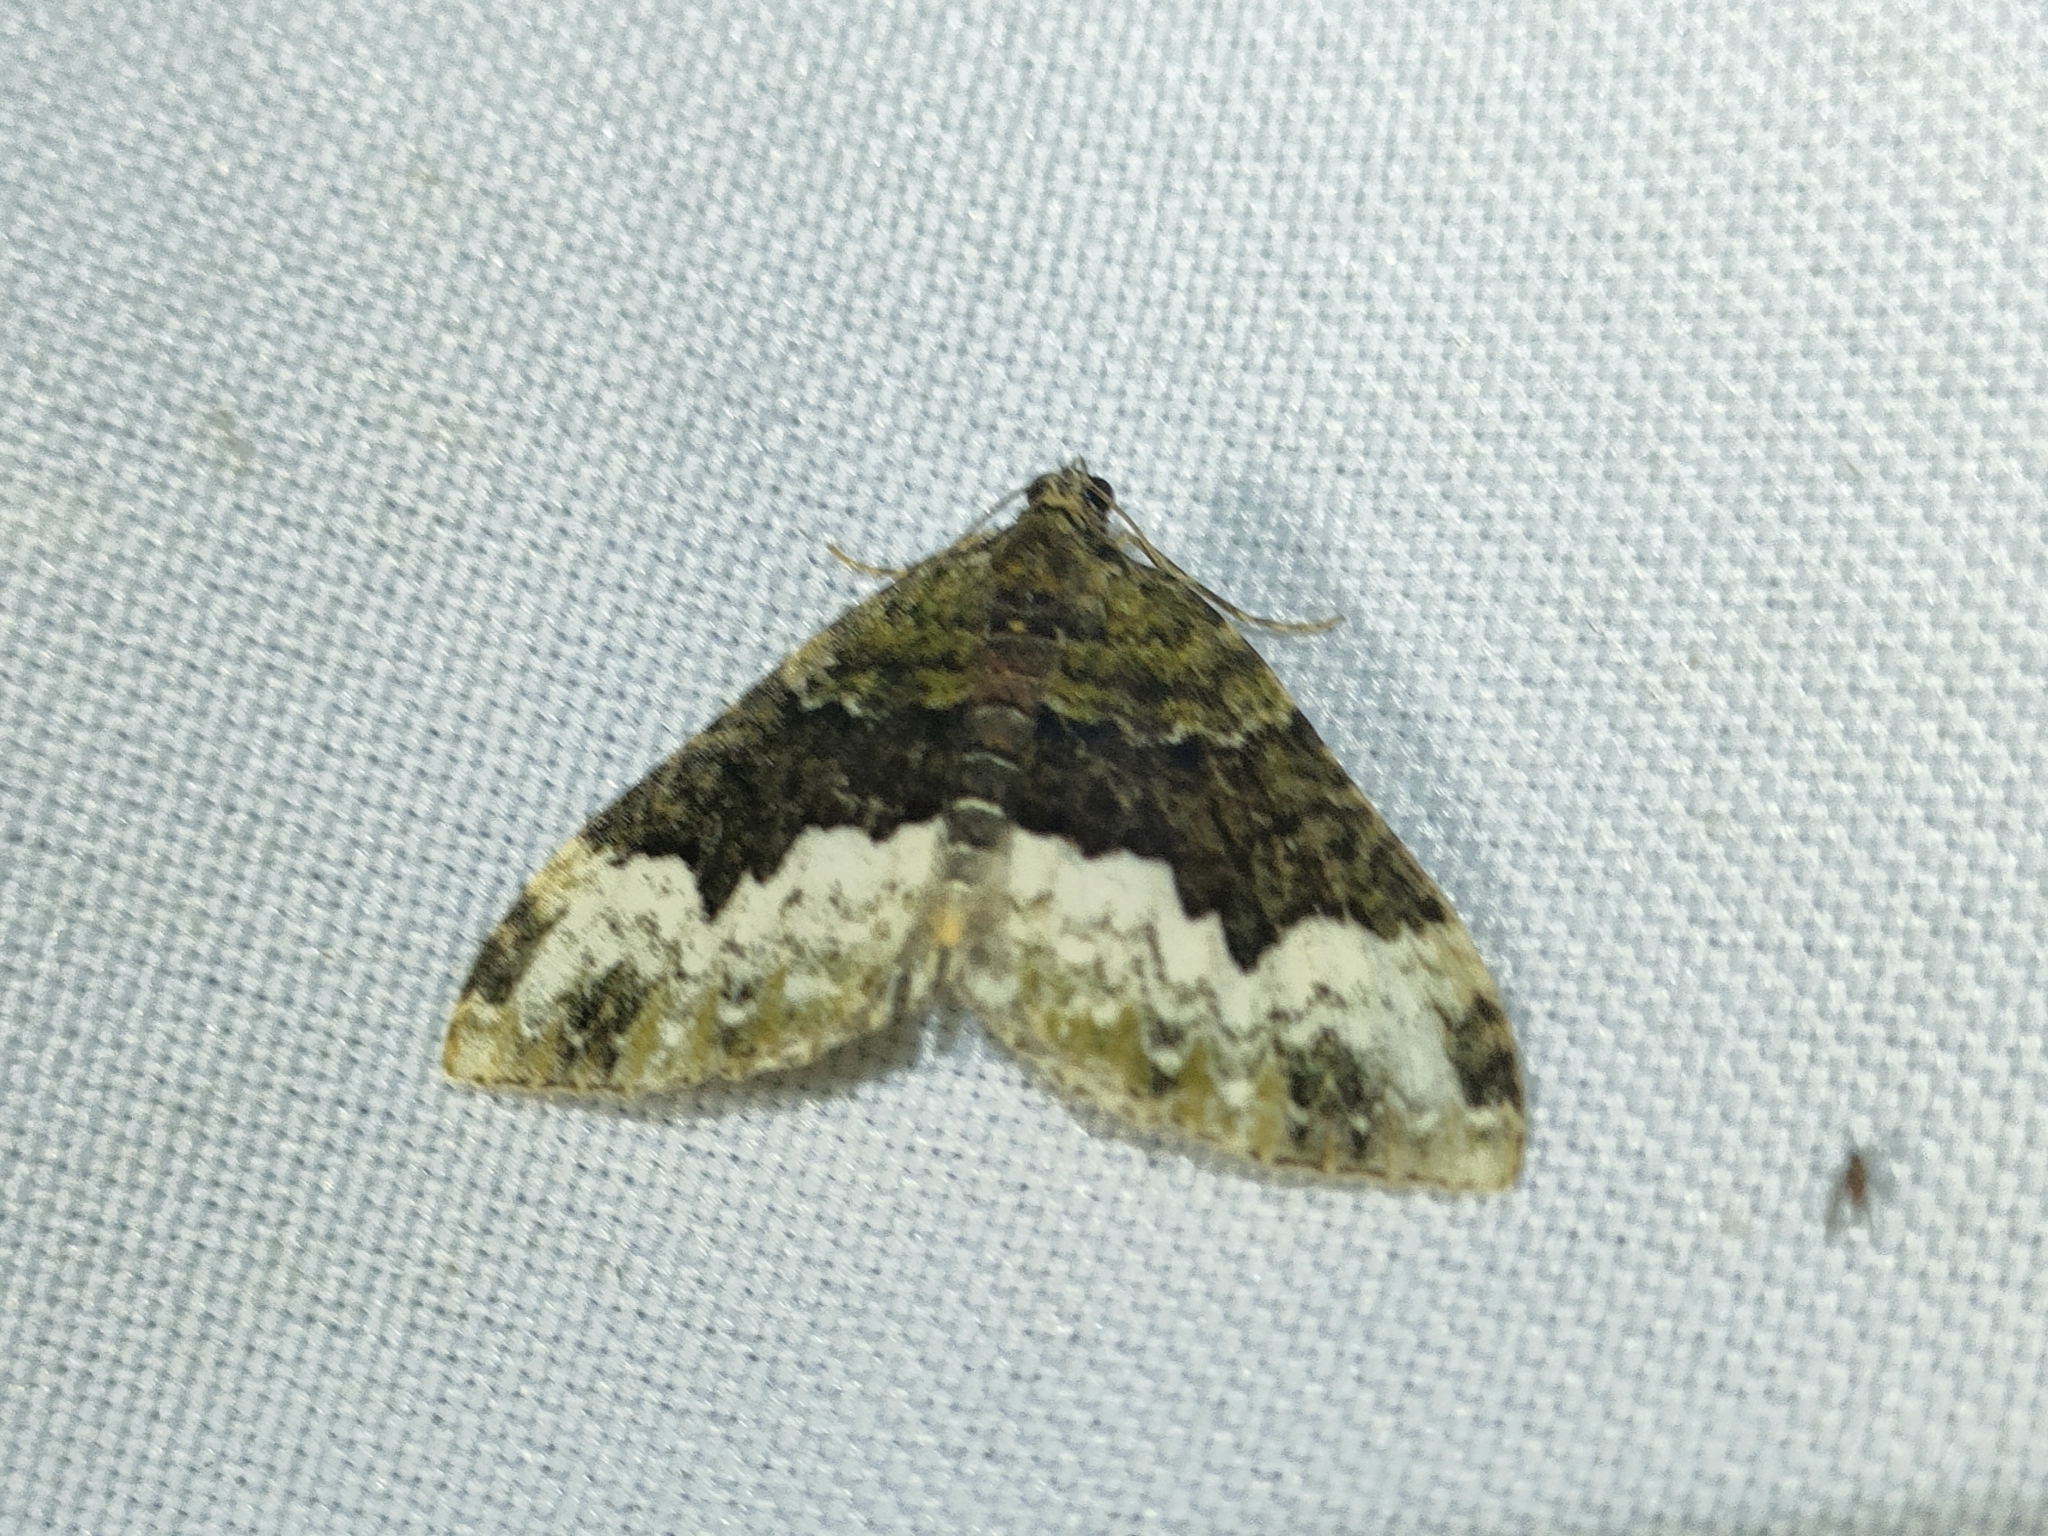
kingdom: Animalia
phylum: Arthropoda
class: Insecta
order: Lepidoptera
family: Geometridae
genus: Euphyia
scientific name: Euphyia biangulata
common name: Cloaked carpet
